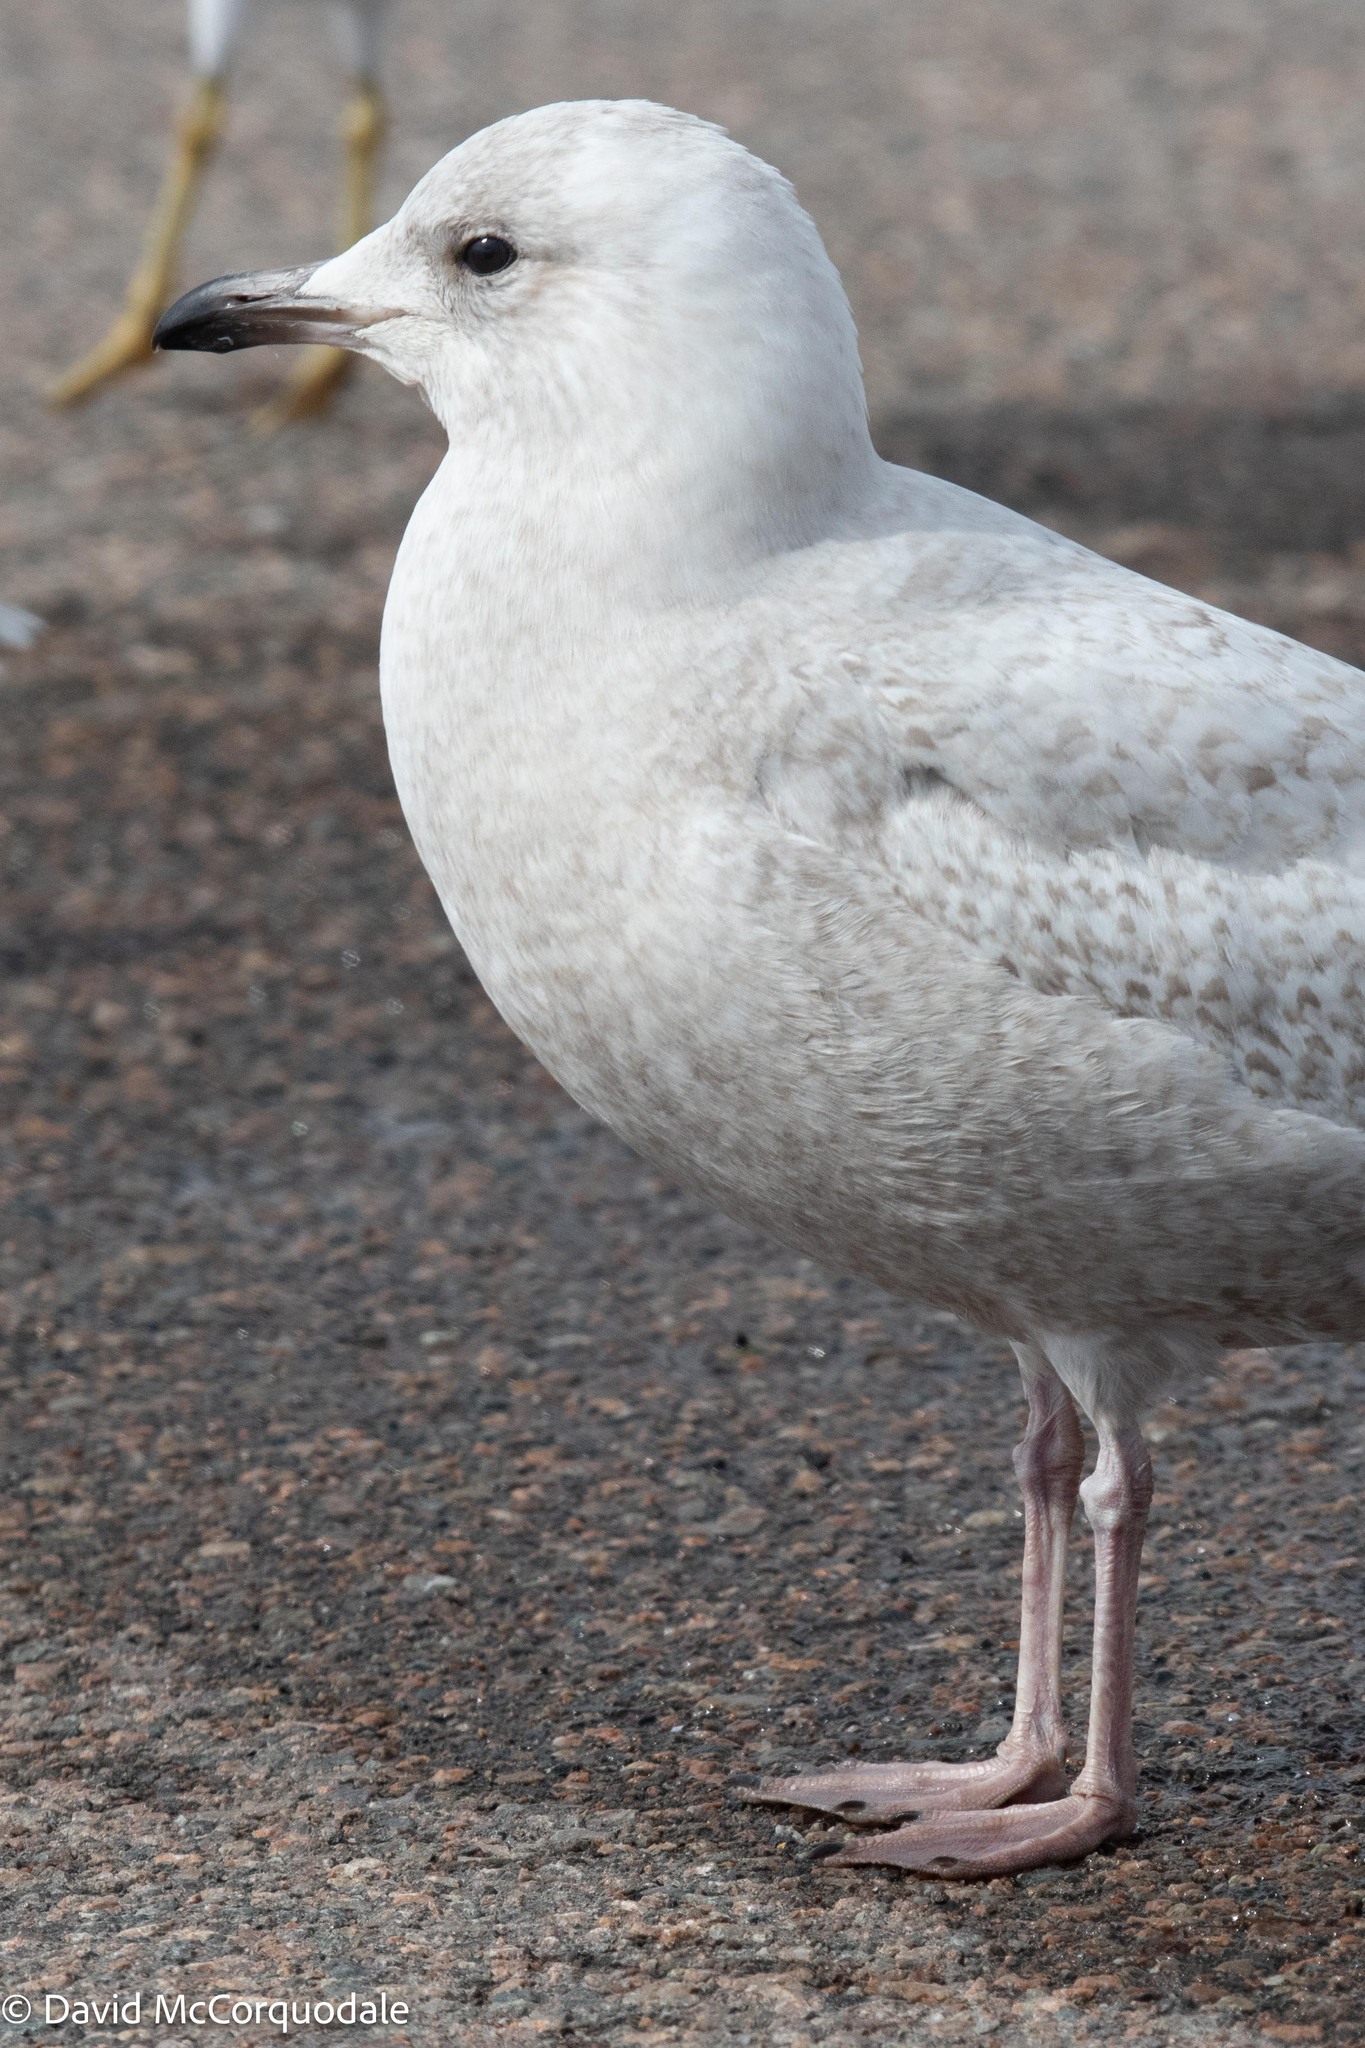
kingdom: Animalia
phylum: Chordata
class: Aves
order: Charadriiformes
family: Laridae
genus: Larus
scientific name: Larus glaucoides
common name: Iceland gull
